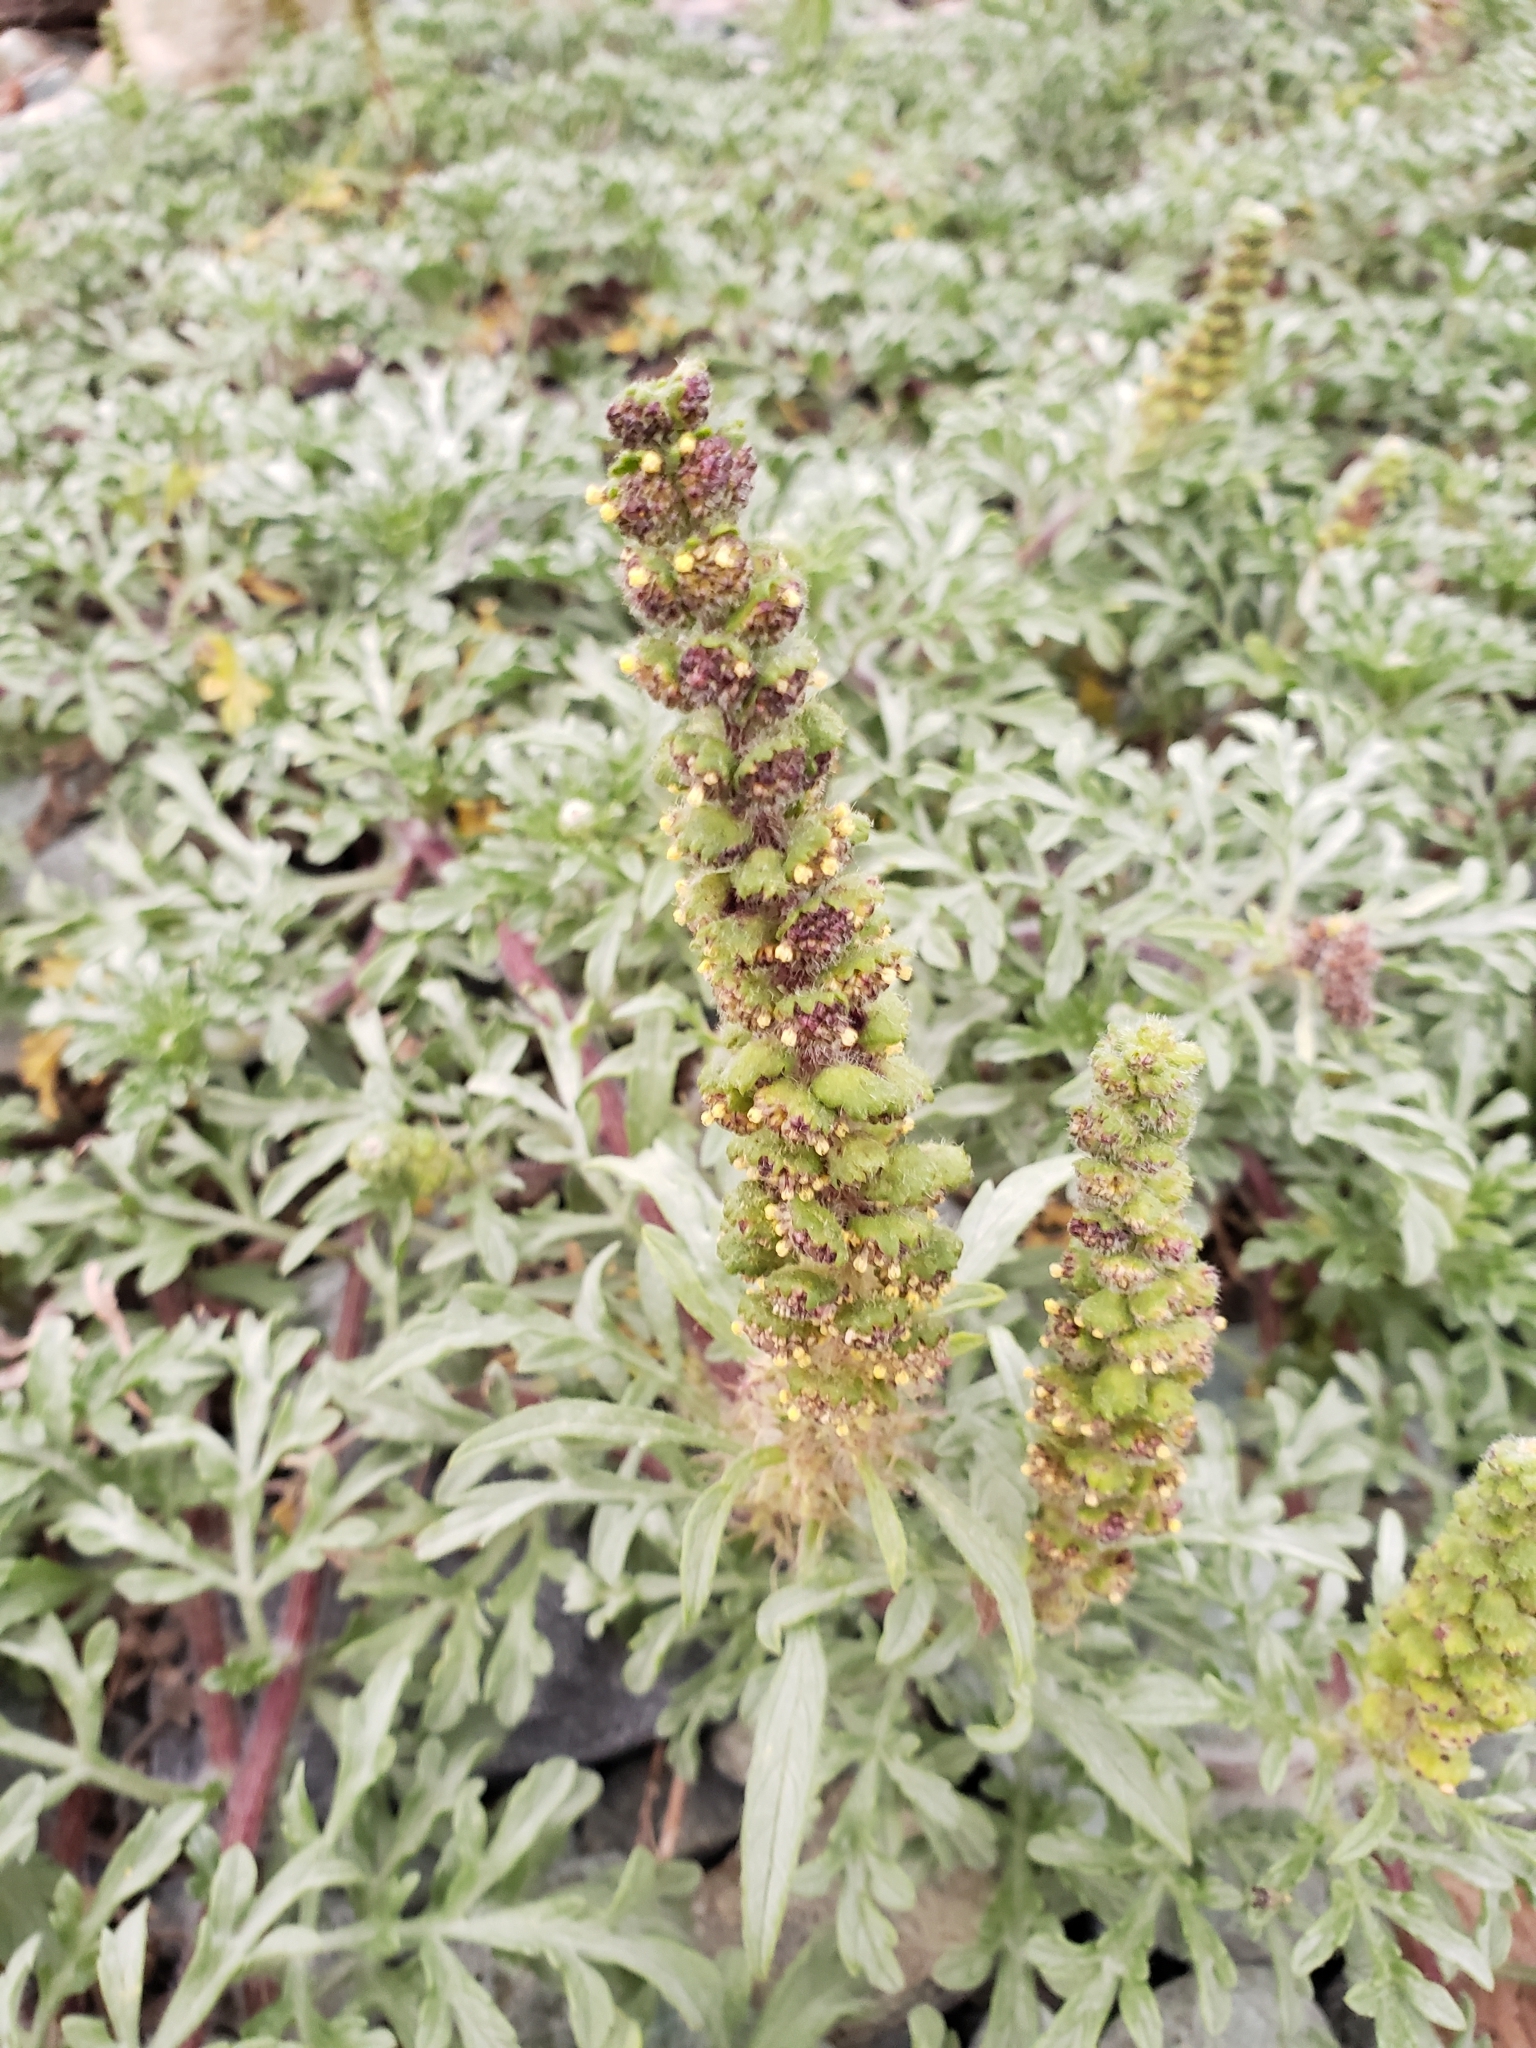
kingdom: Plantae
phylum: Tracheophyta
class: Magnoliopsida
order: Asterales
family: Asteraceae
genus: Ambrosia
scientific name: Ambrosia chamissonis
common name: Beachbur
